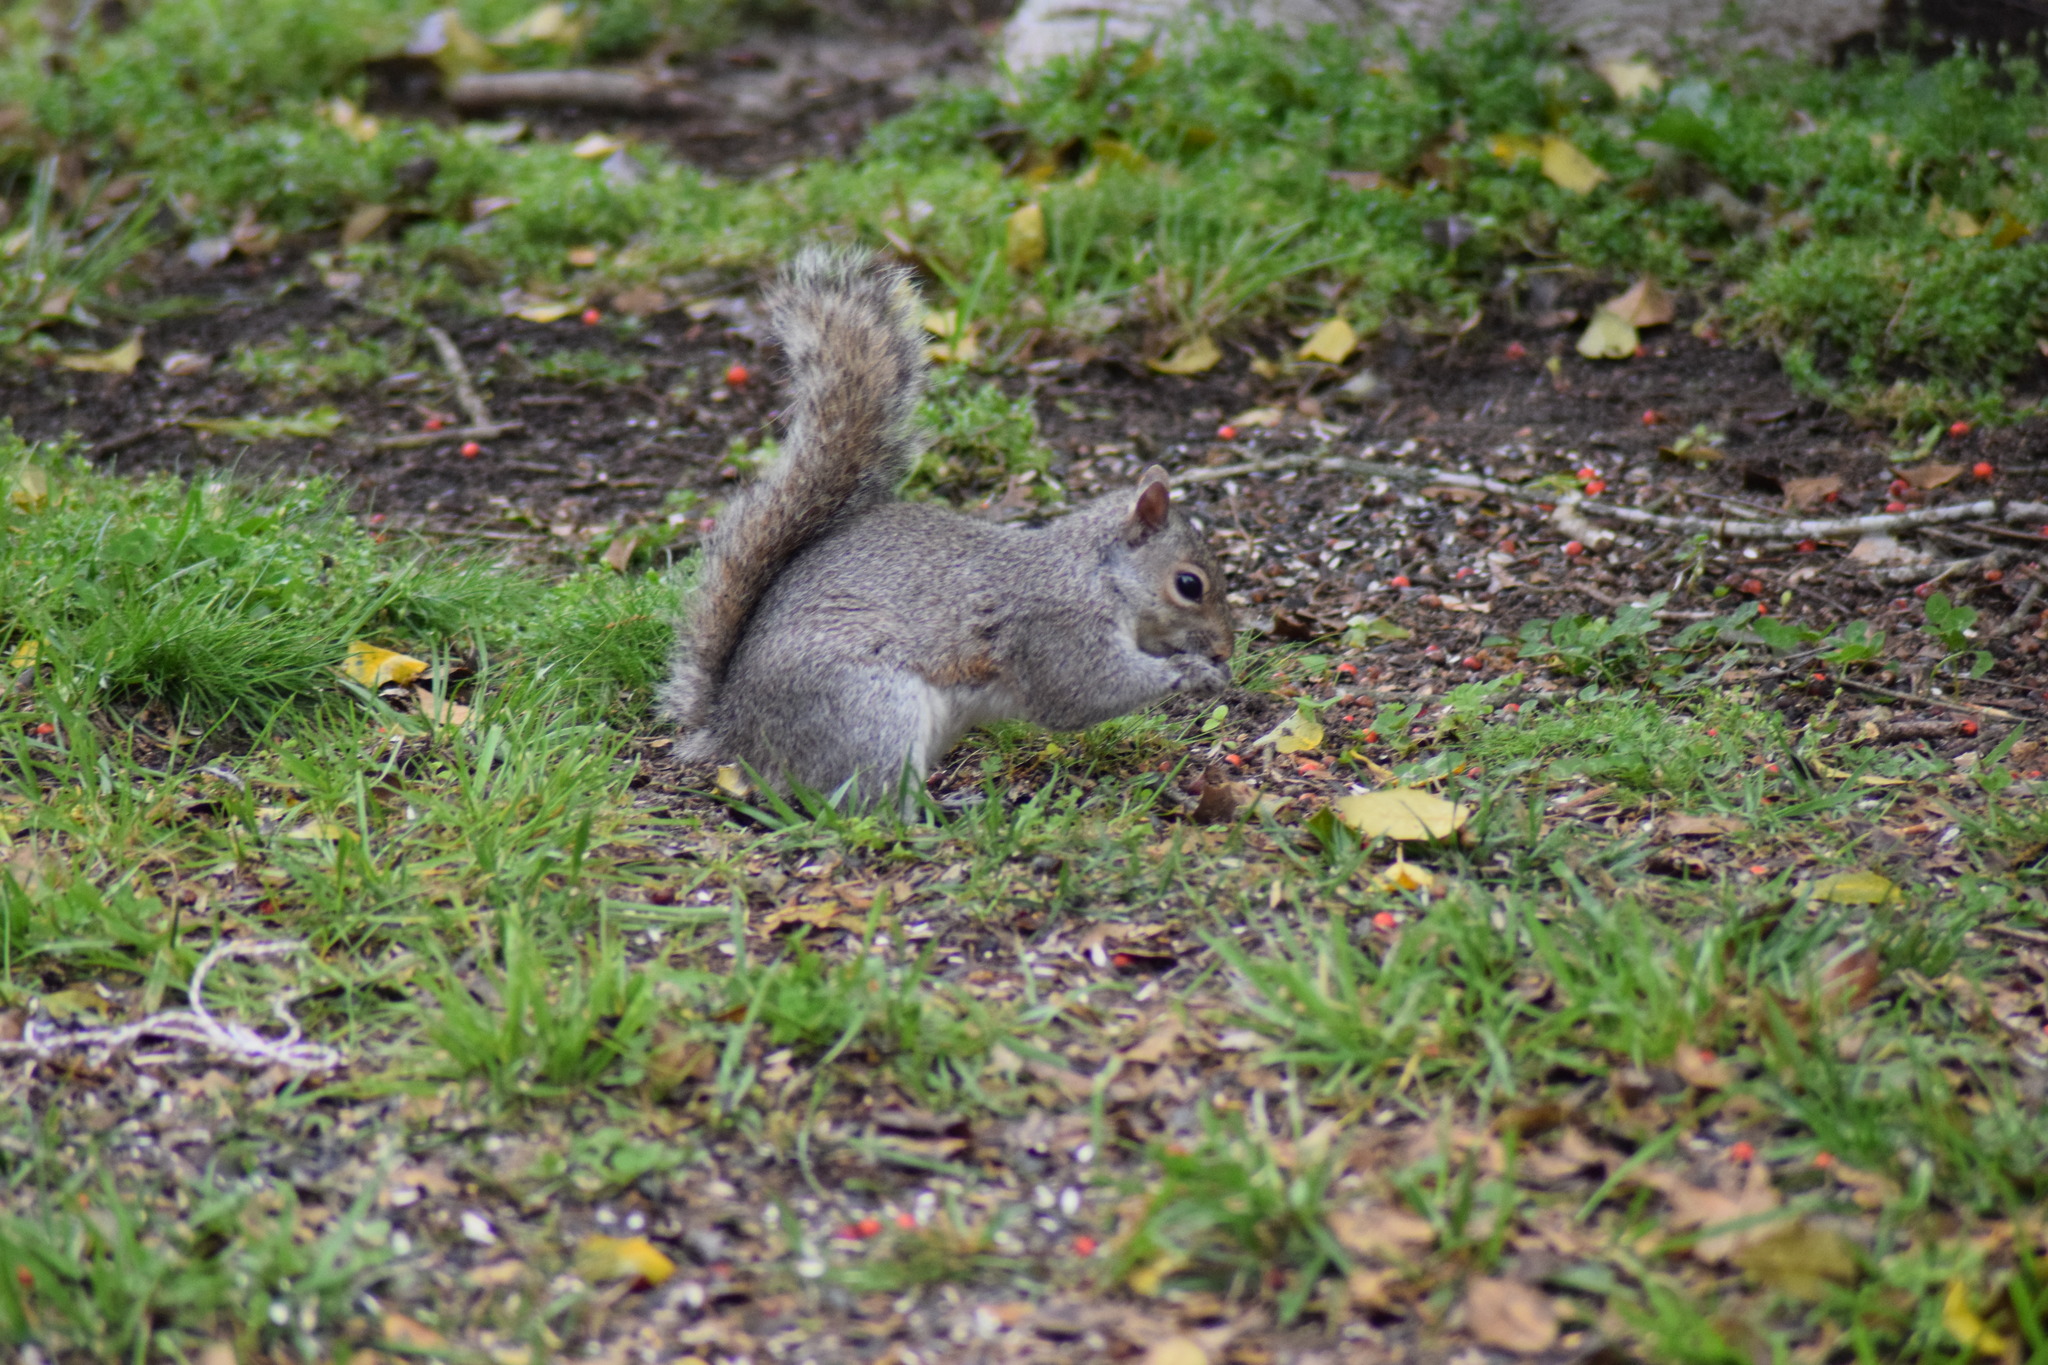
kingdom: Animalia
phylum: Chordata
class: Mammalia
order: Rodentia
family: Sciuridae
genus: Sciurus
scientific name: Sciurus carolinensis
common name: Eastern gray squirrel
